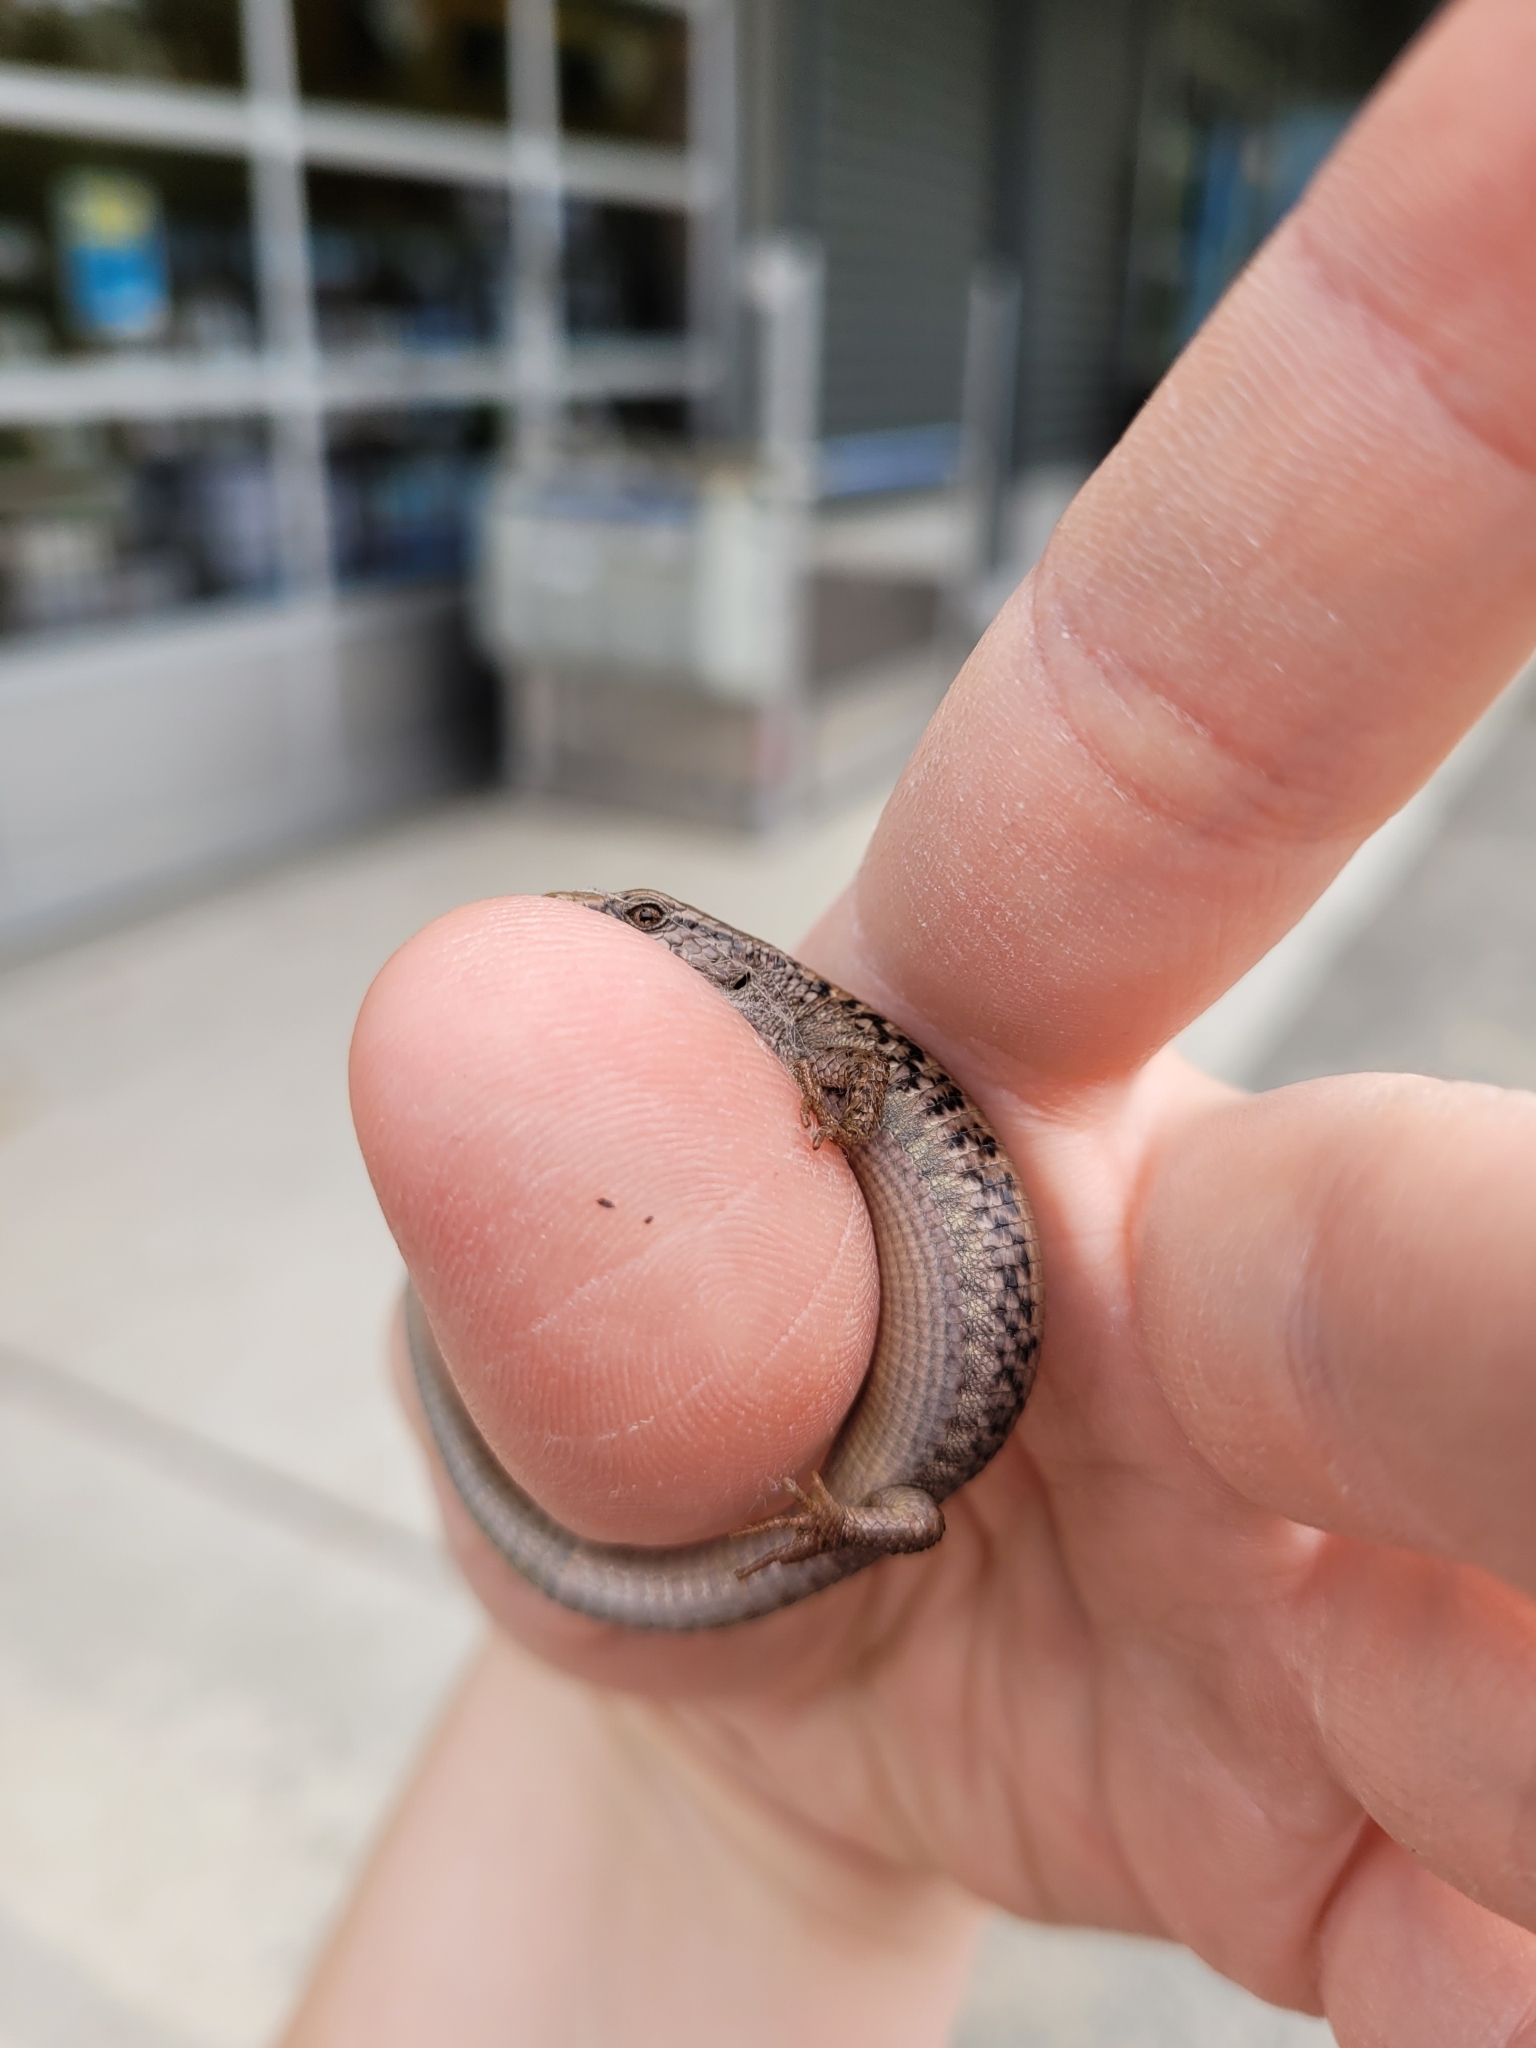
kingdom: Animalia
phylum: Chordata
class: Squamata
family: Anguidae
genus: Elgaria
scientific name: Elgaria coerulea
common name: Northern alligator lizard
